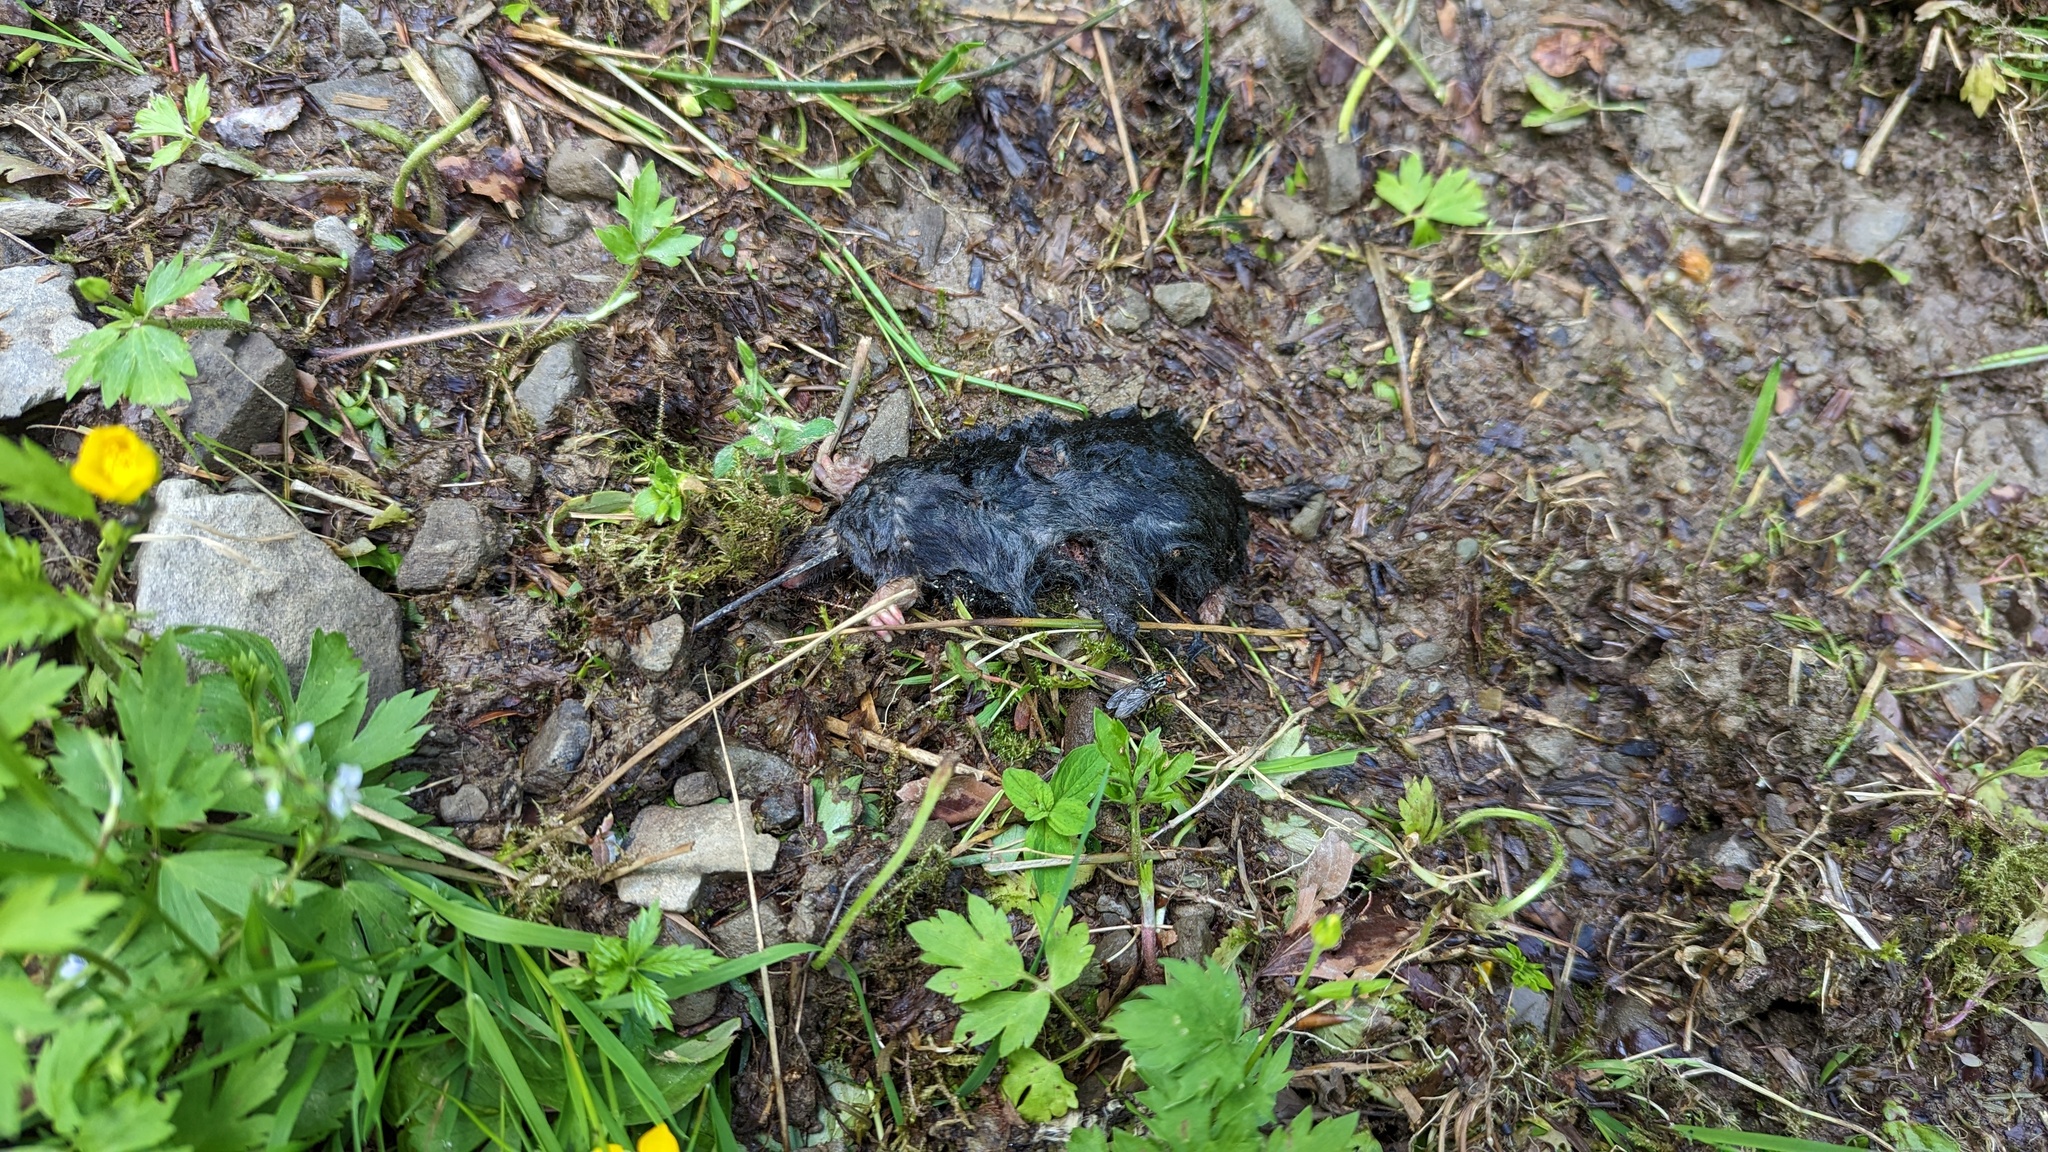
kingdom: Animalia
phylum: Chordata
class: Mammalia
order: Soricomorpha
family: Talpidae
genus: Talpa
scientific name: Talpa europaea
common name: European mole
